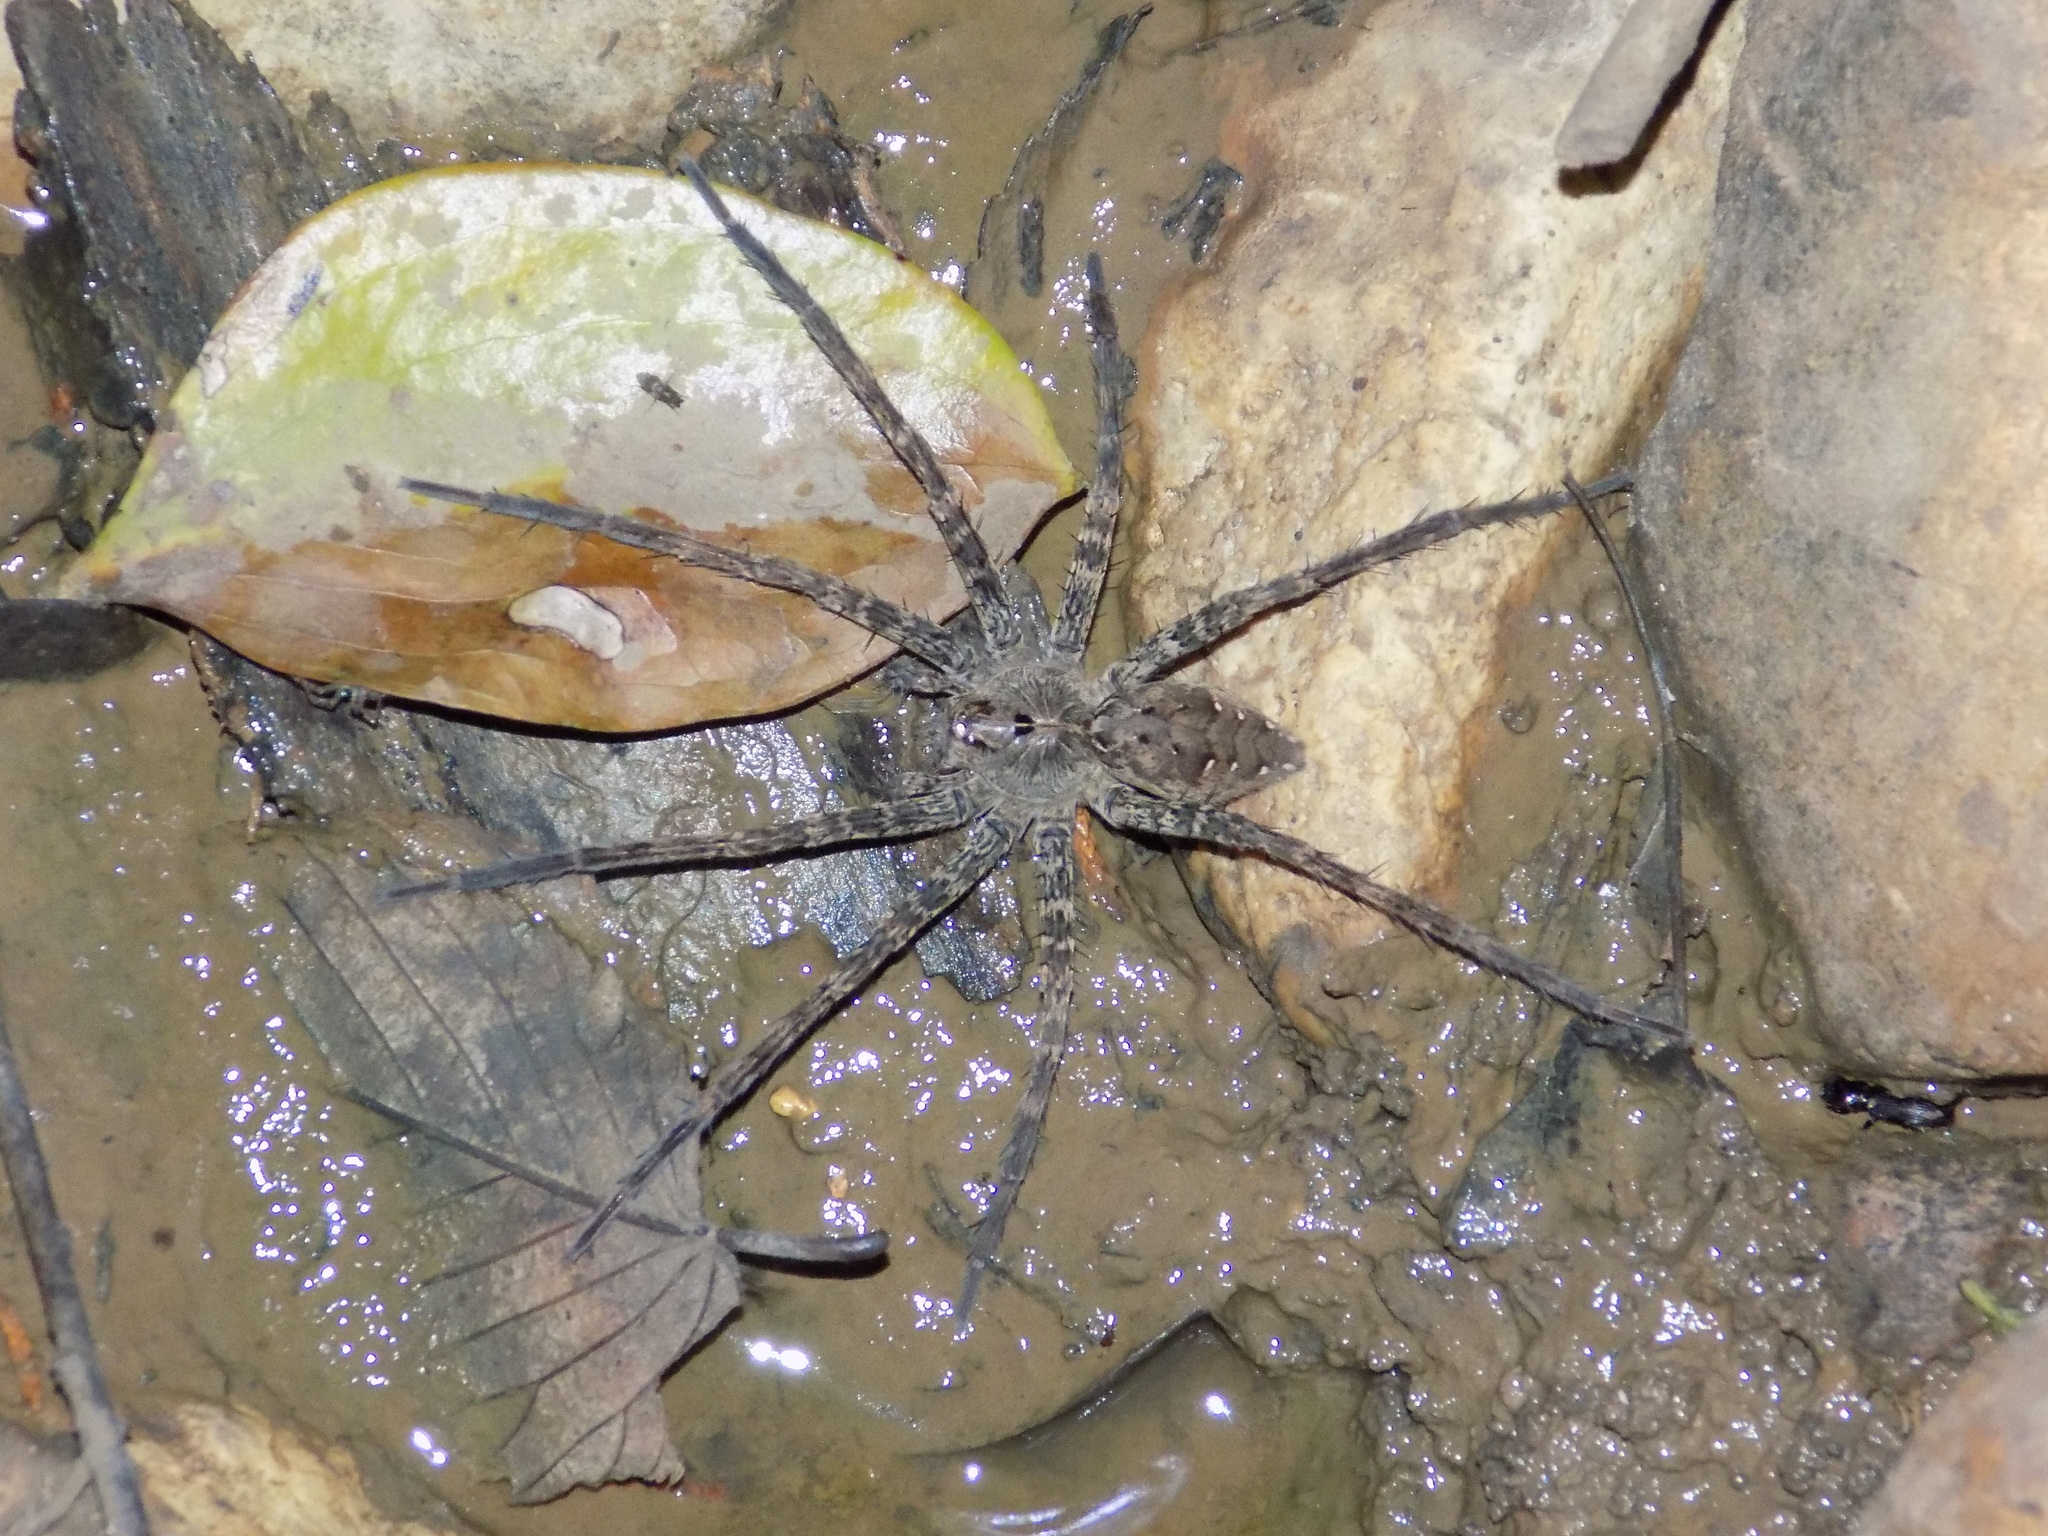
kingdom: Animalia
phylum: Arthropoda
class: Arachnida
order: Araneae
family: Pisauridae
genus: Dolomedes
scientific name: Dolomedes vittatus
